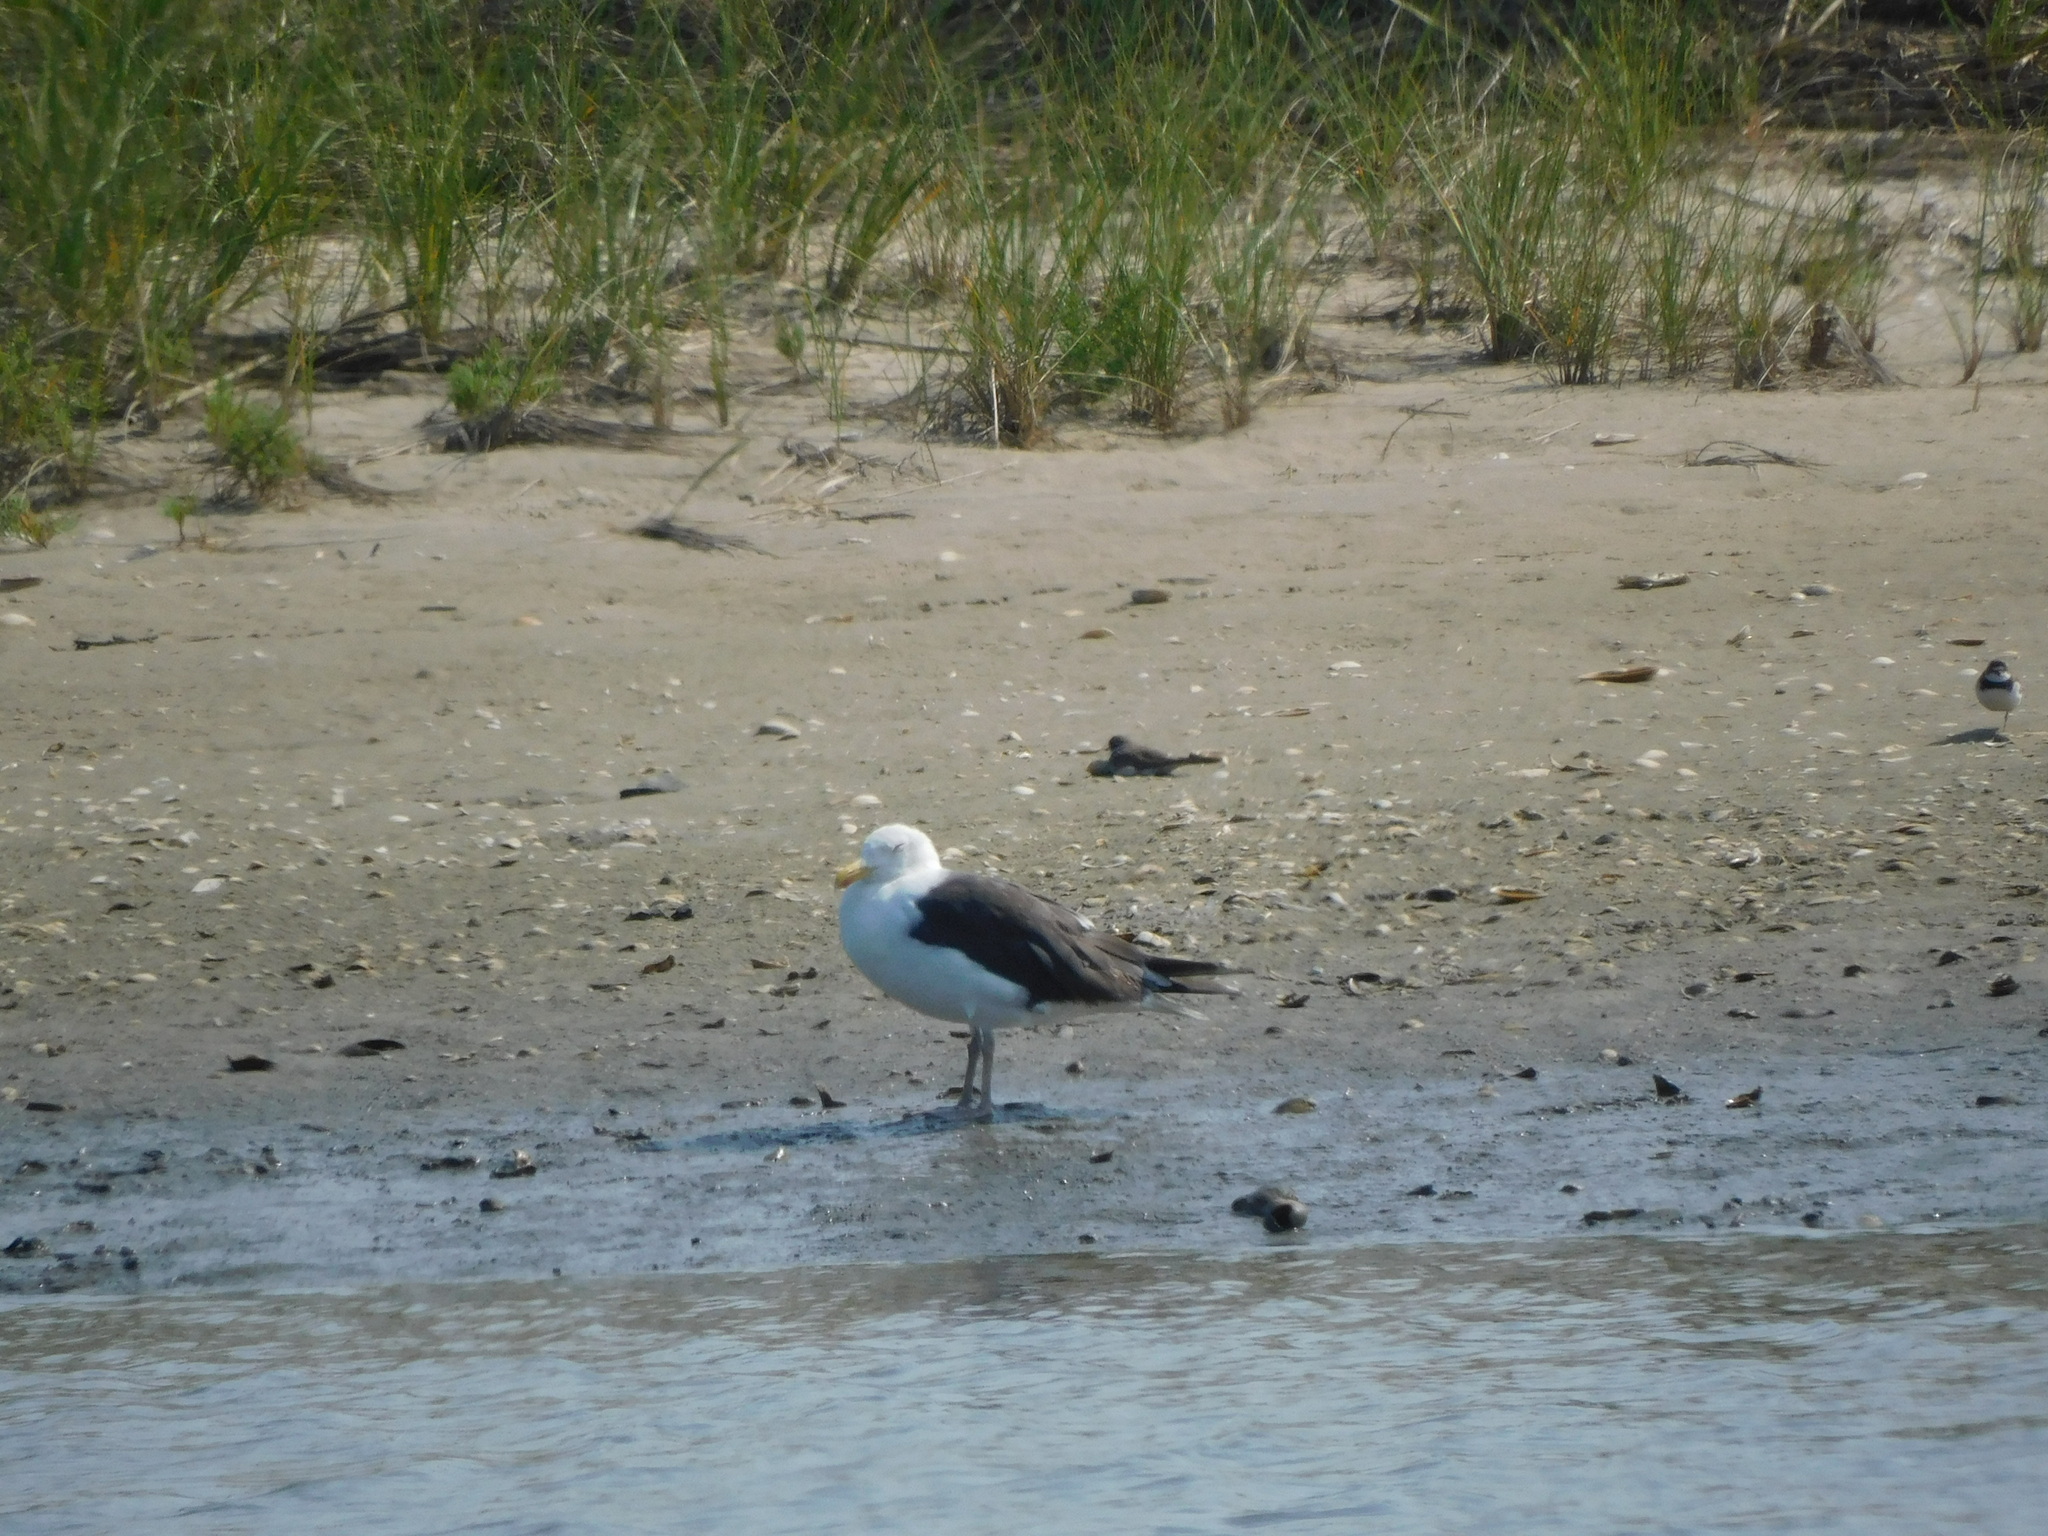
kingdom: Animalia
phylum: Chordata
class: Aves
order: Charadriiformes
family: Laridae
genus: Larus
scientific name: Larus marinus
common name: Great black-backed gull
